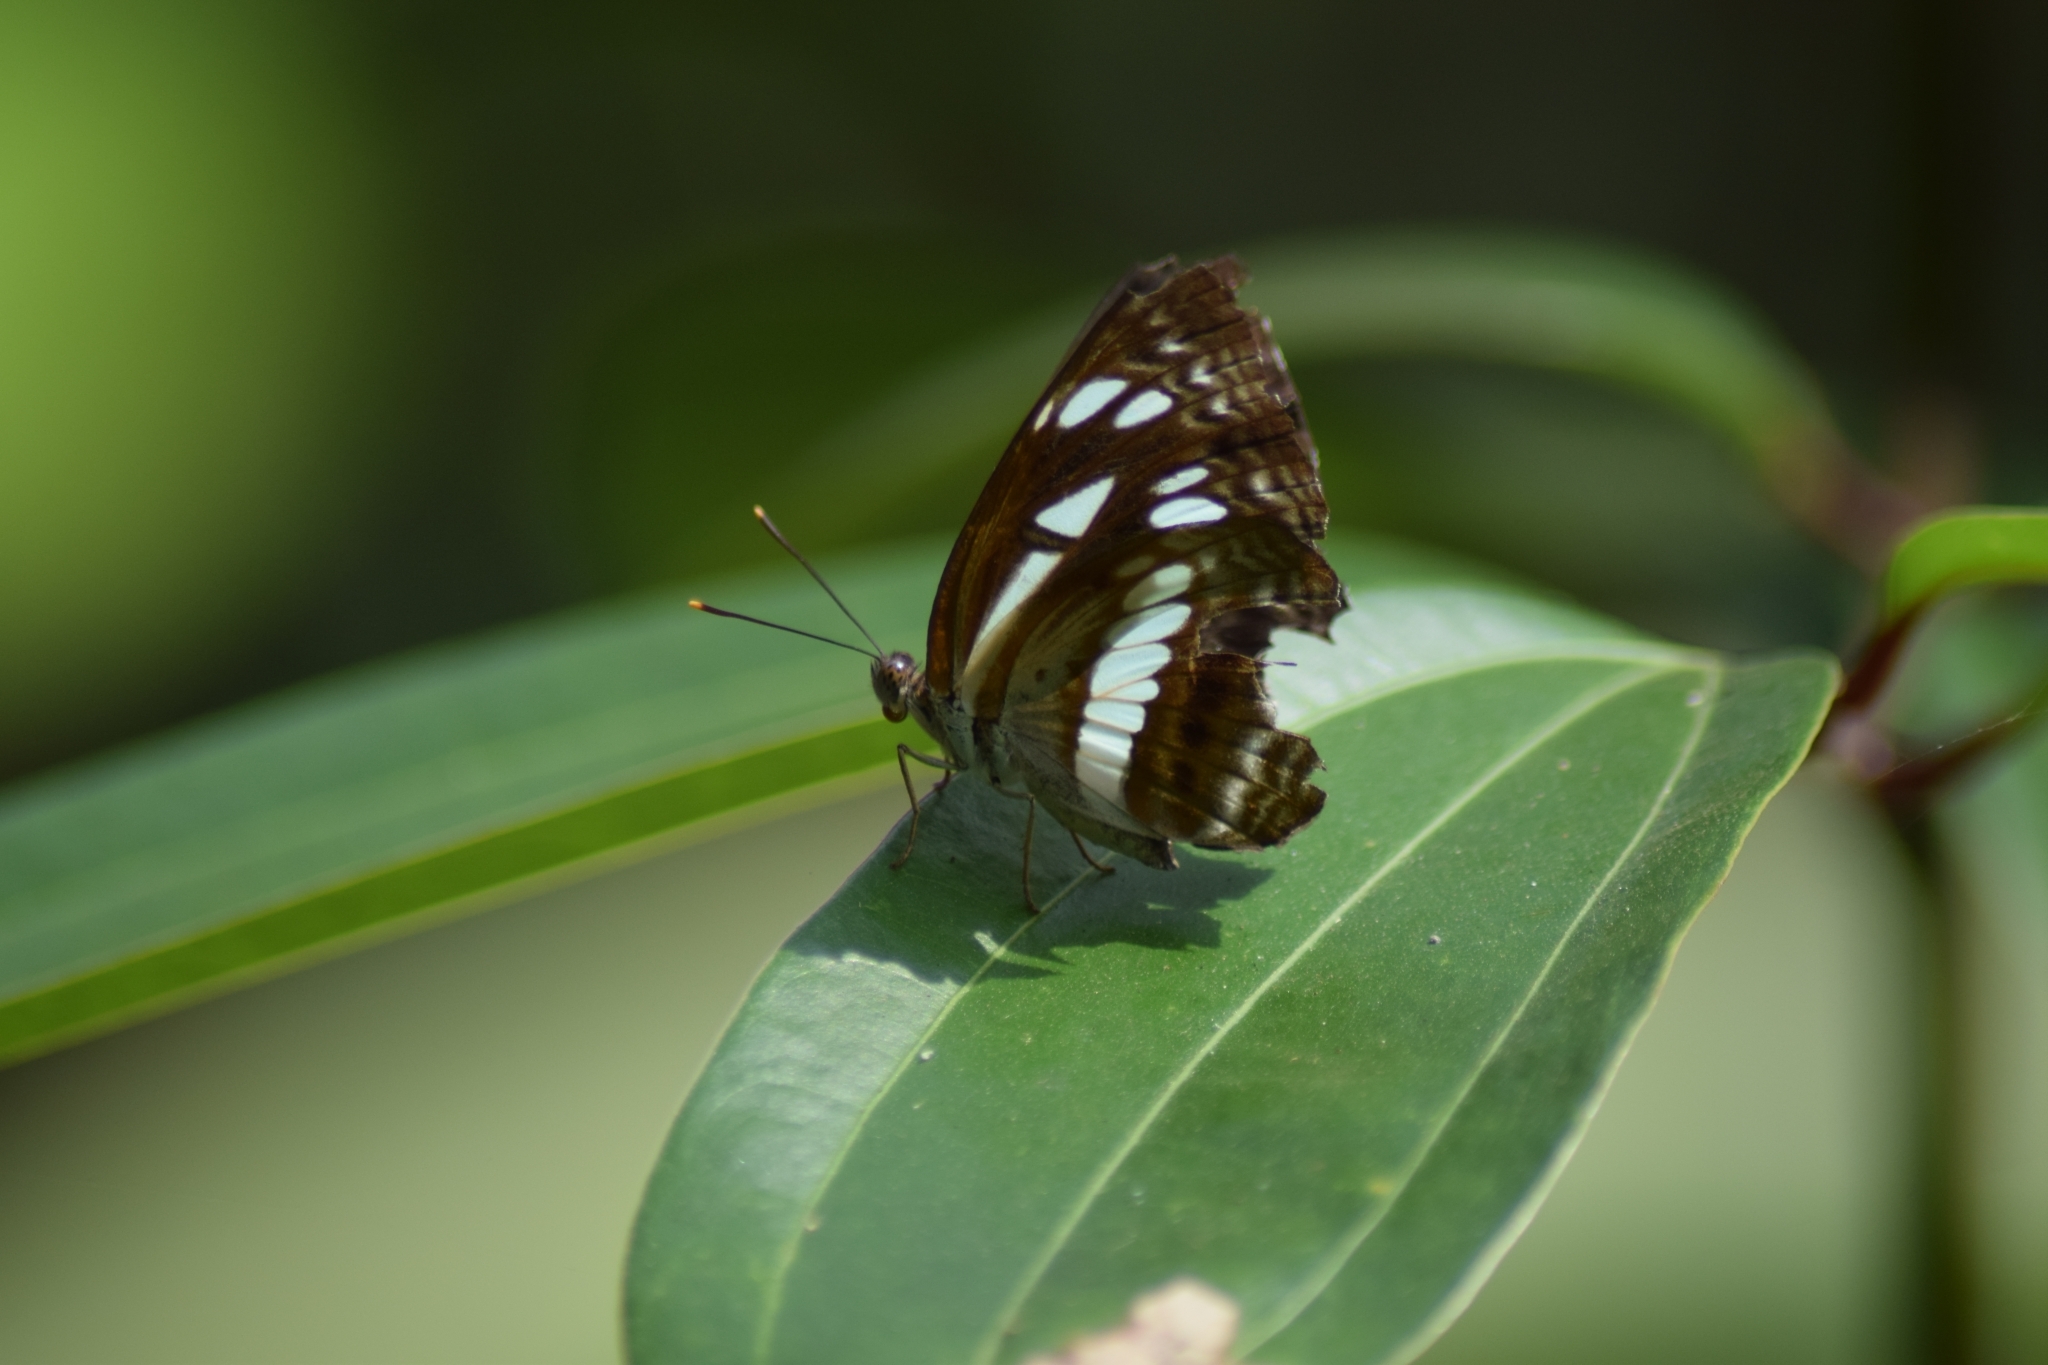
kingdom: Animalia
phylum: Arthropoda
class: Insecta
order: Lepidoptera
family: Nymphalidae
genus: Neptis
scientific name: Neptis jumbah
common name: Chestnut-streaked sailer
